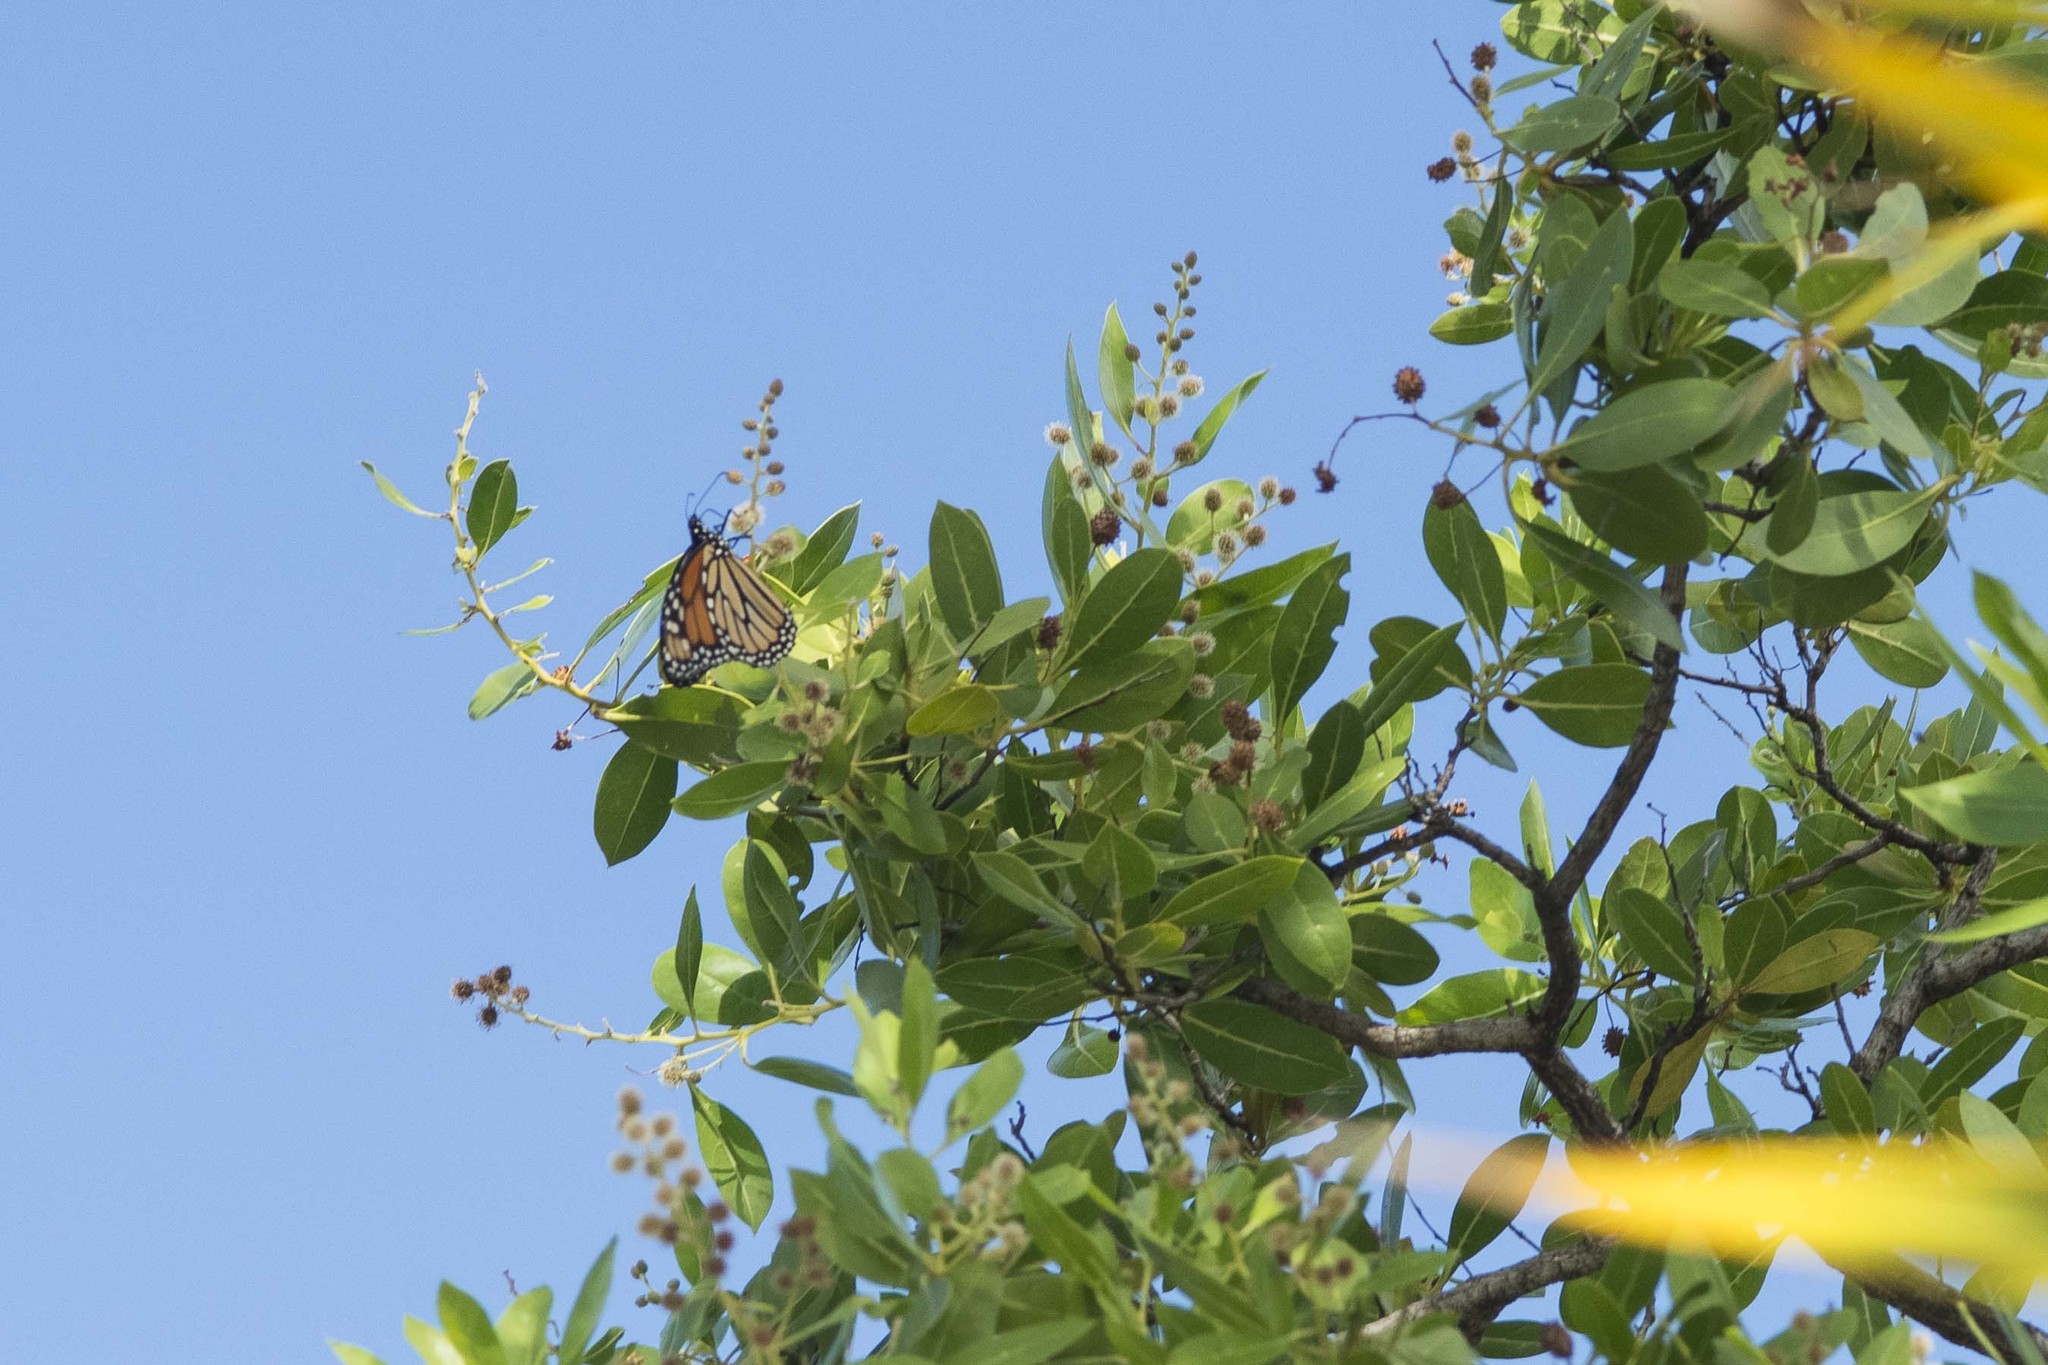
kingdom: Animalia
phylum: Arthropoda
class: Insecta
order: Lepidoptera
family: Nymphalidae
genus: Danaus
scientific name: Danaus plexippus
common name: Monarch
